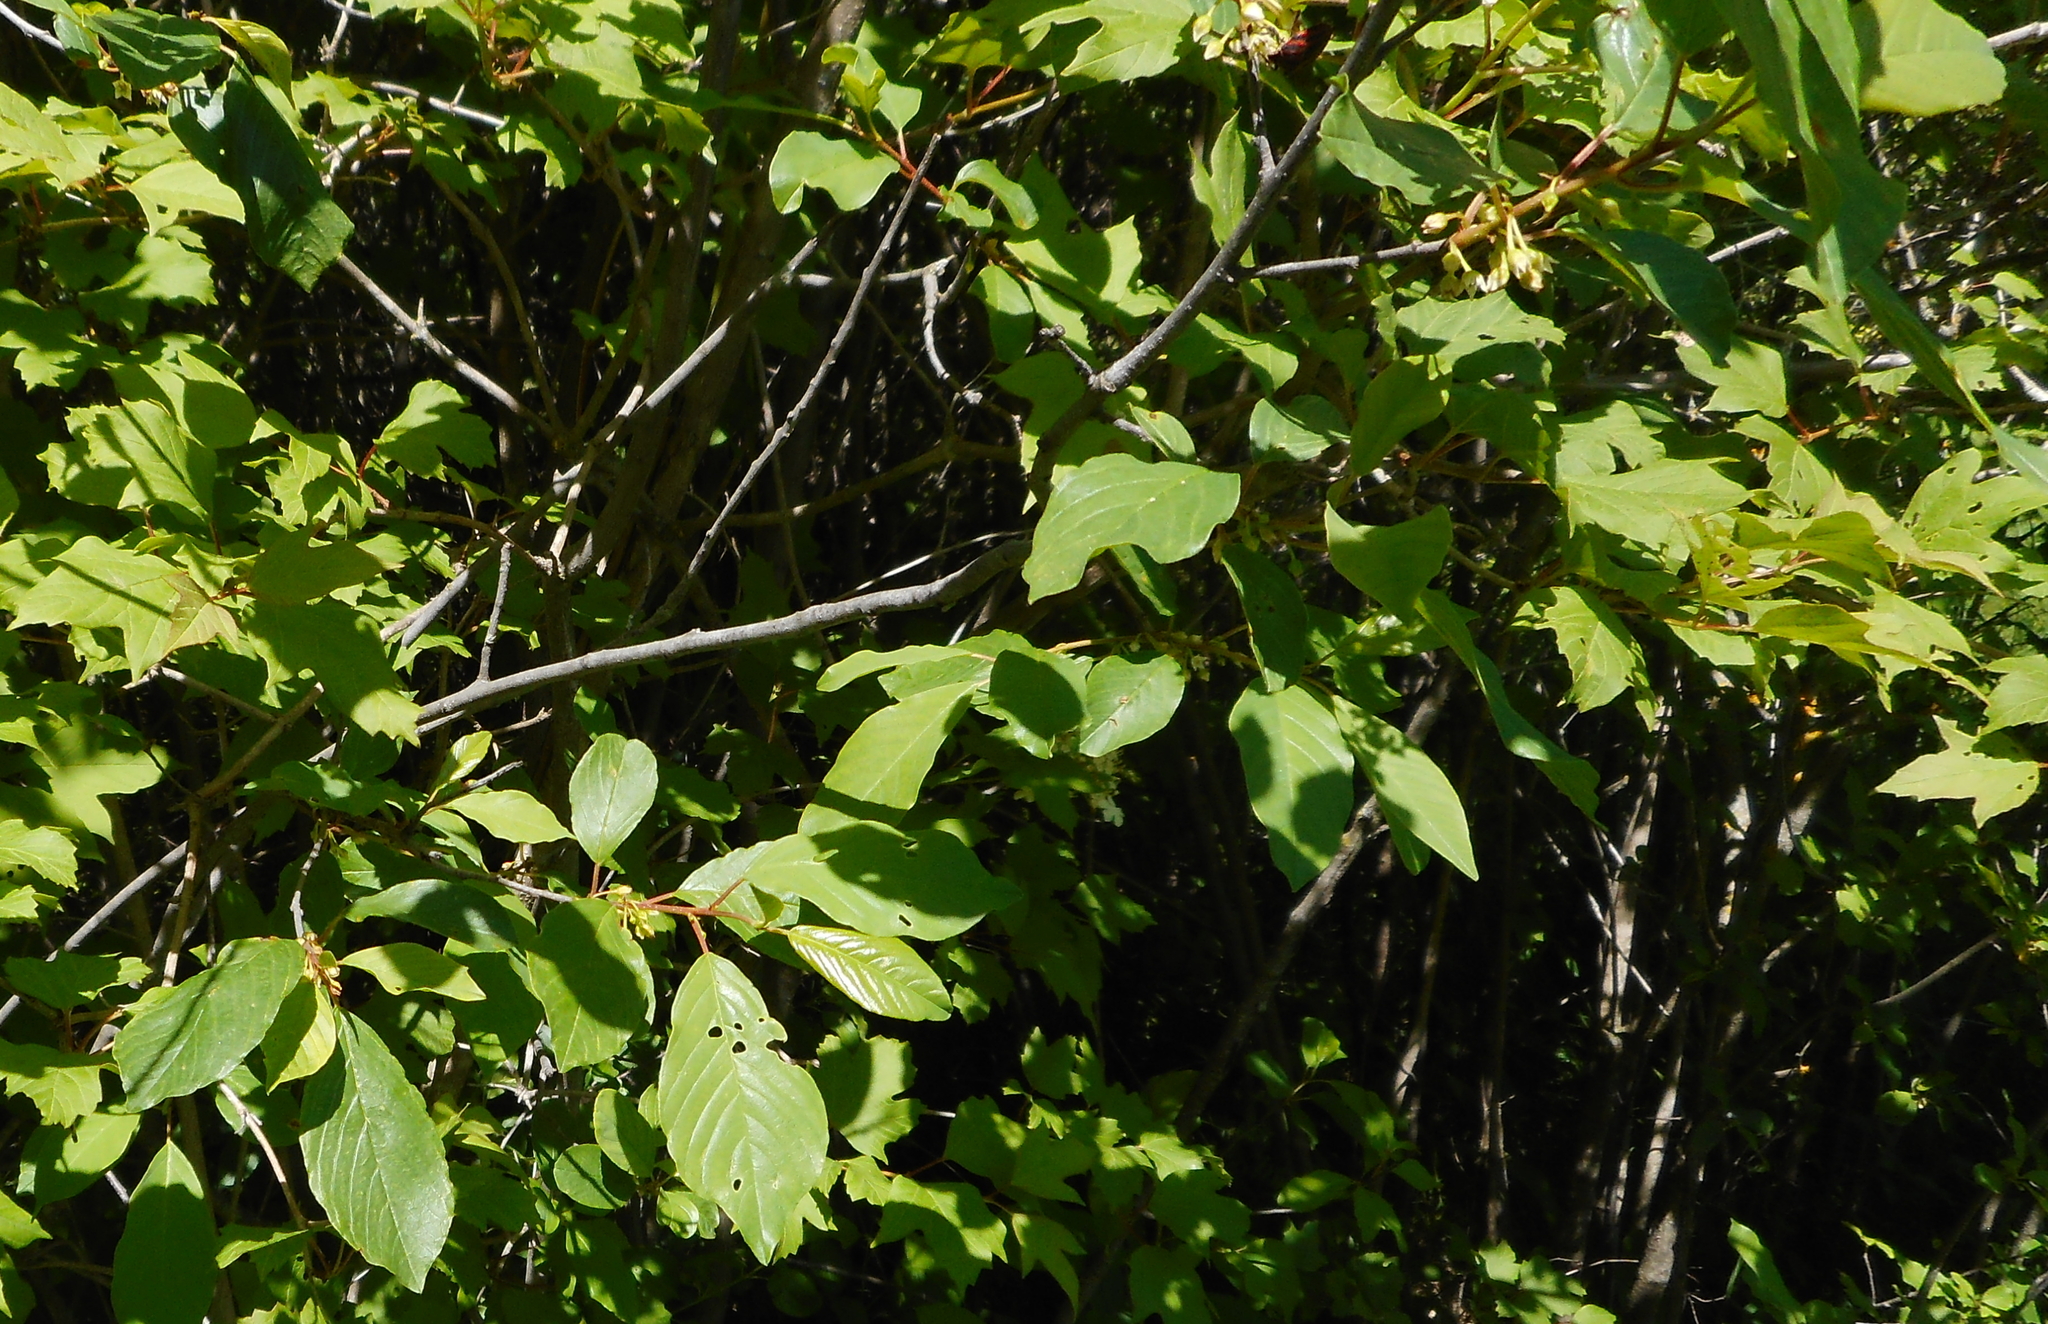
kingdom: Plantae
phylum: Tracheophyta
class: Magnoliopsida
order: Rosales
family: Rhamnaceae
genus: Frangula
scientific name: Frangula alnus
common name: Alder buckthorn
